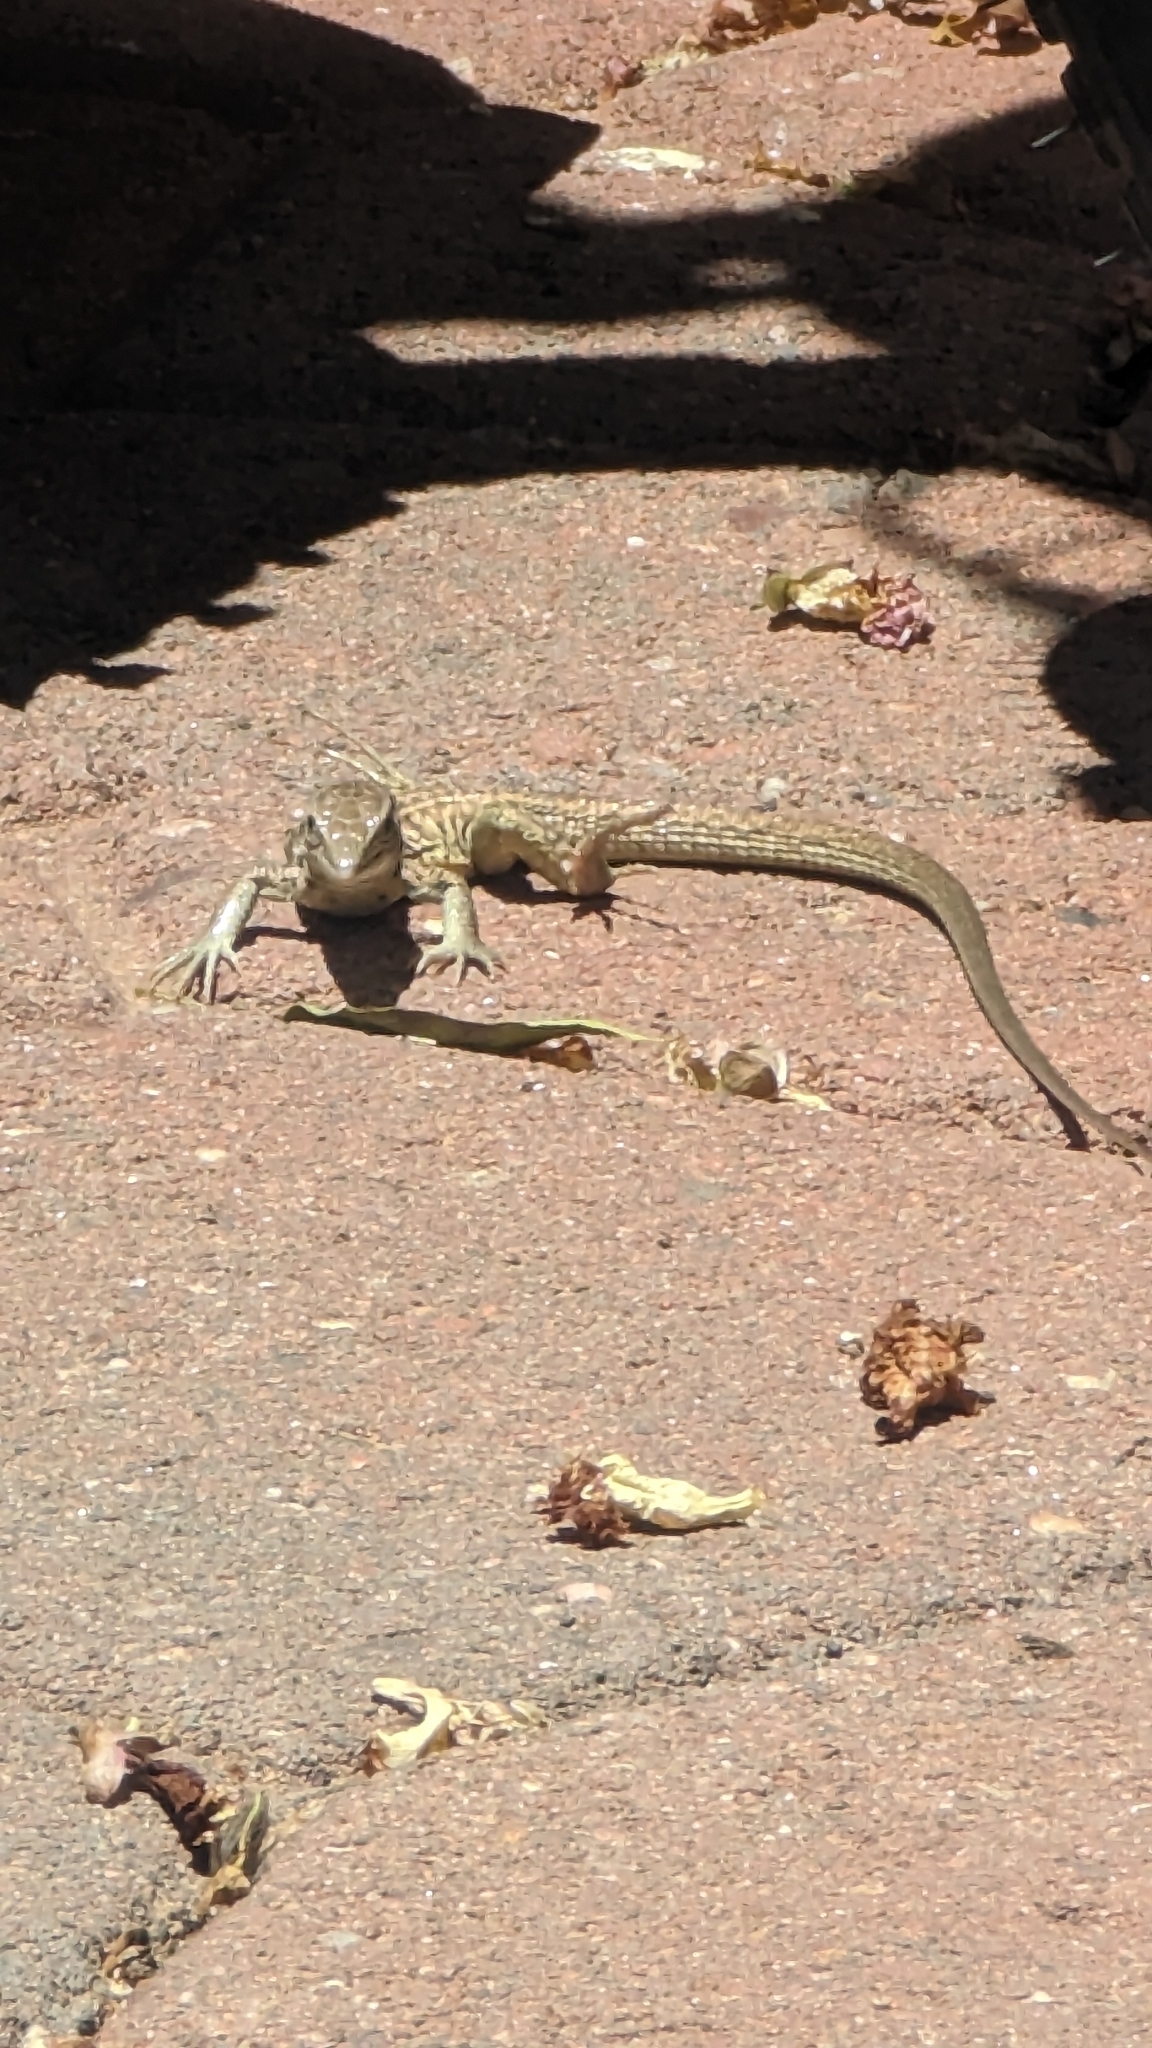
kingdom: Animalia
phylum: Chordata
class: Squamata
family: Teiidae
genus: Aspidoscelis
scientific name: Aspidoscelis marmoratus
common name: Eastern marbled whiptail [reticuloriens]
